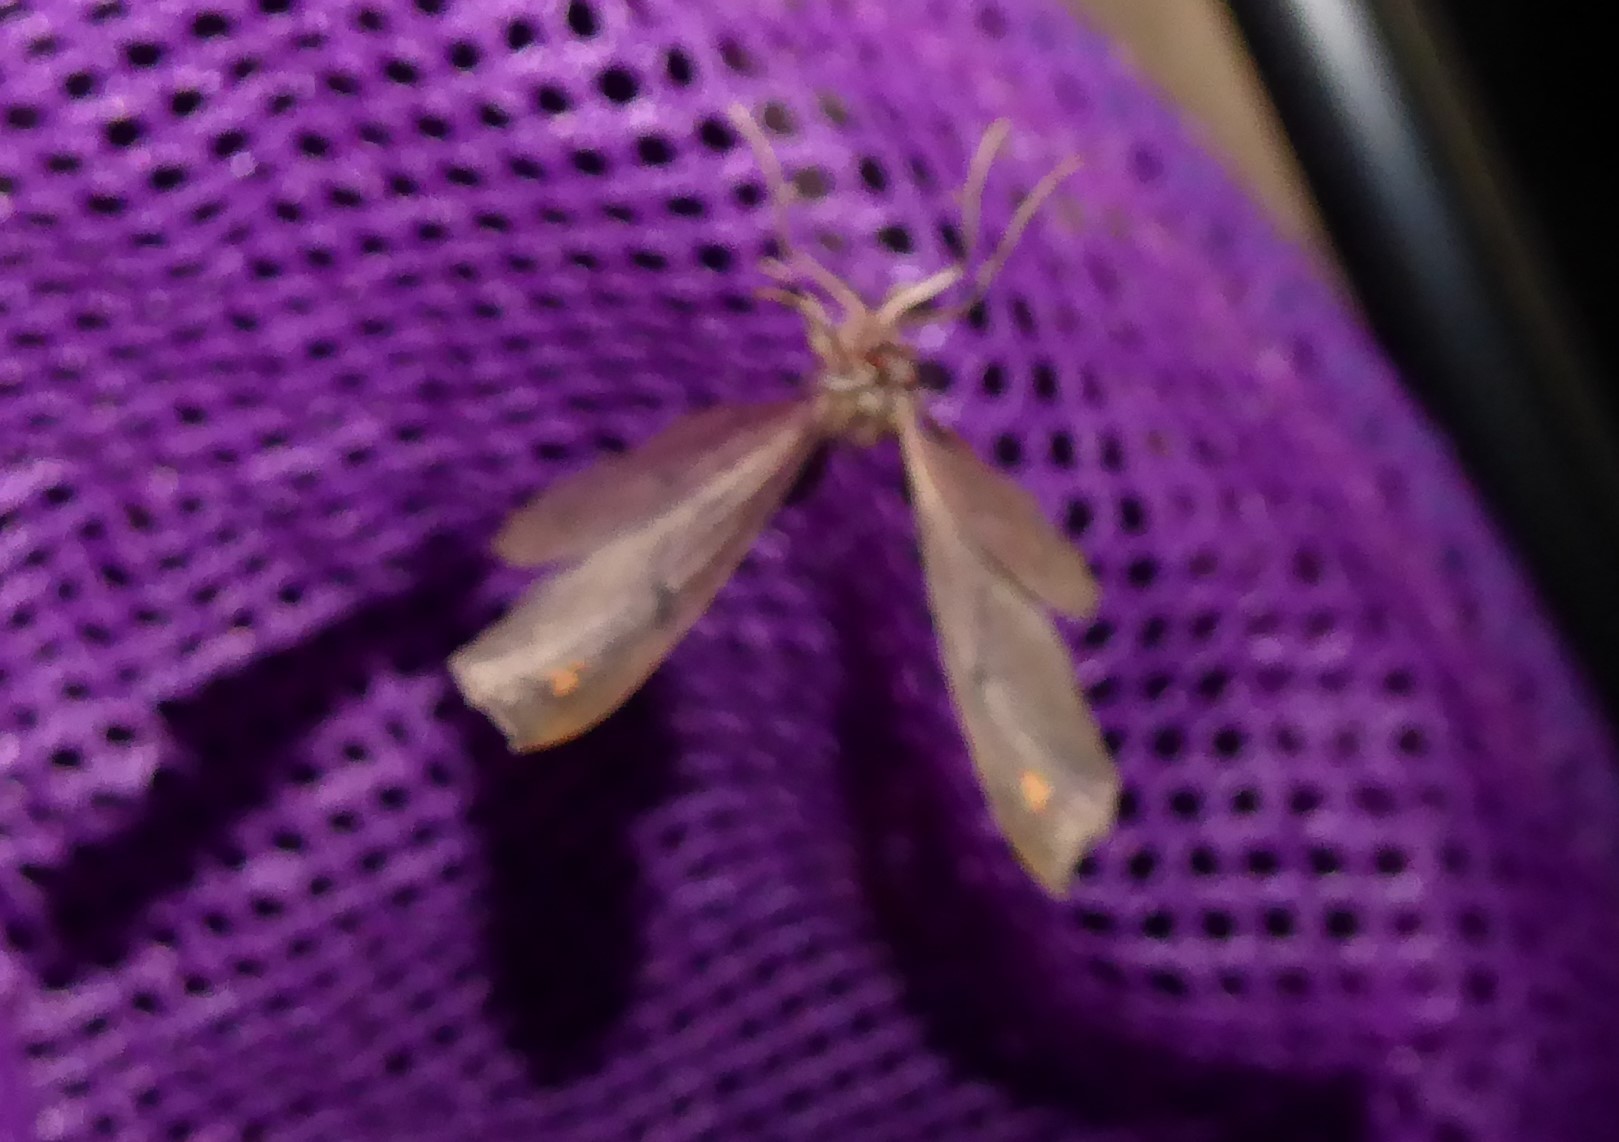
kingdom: Animalia
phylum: Arthropoda
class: Insecta
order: Lepidoptera
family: Geometridae
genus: Xyridacma
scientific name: Xyridacma ustaria
